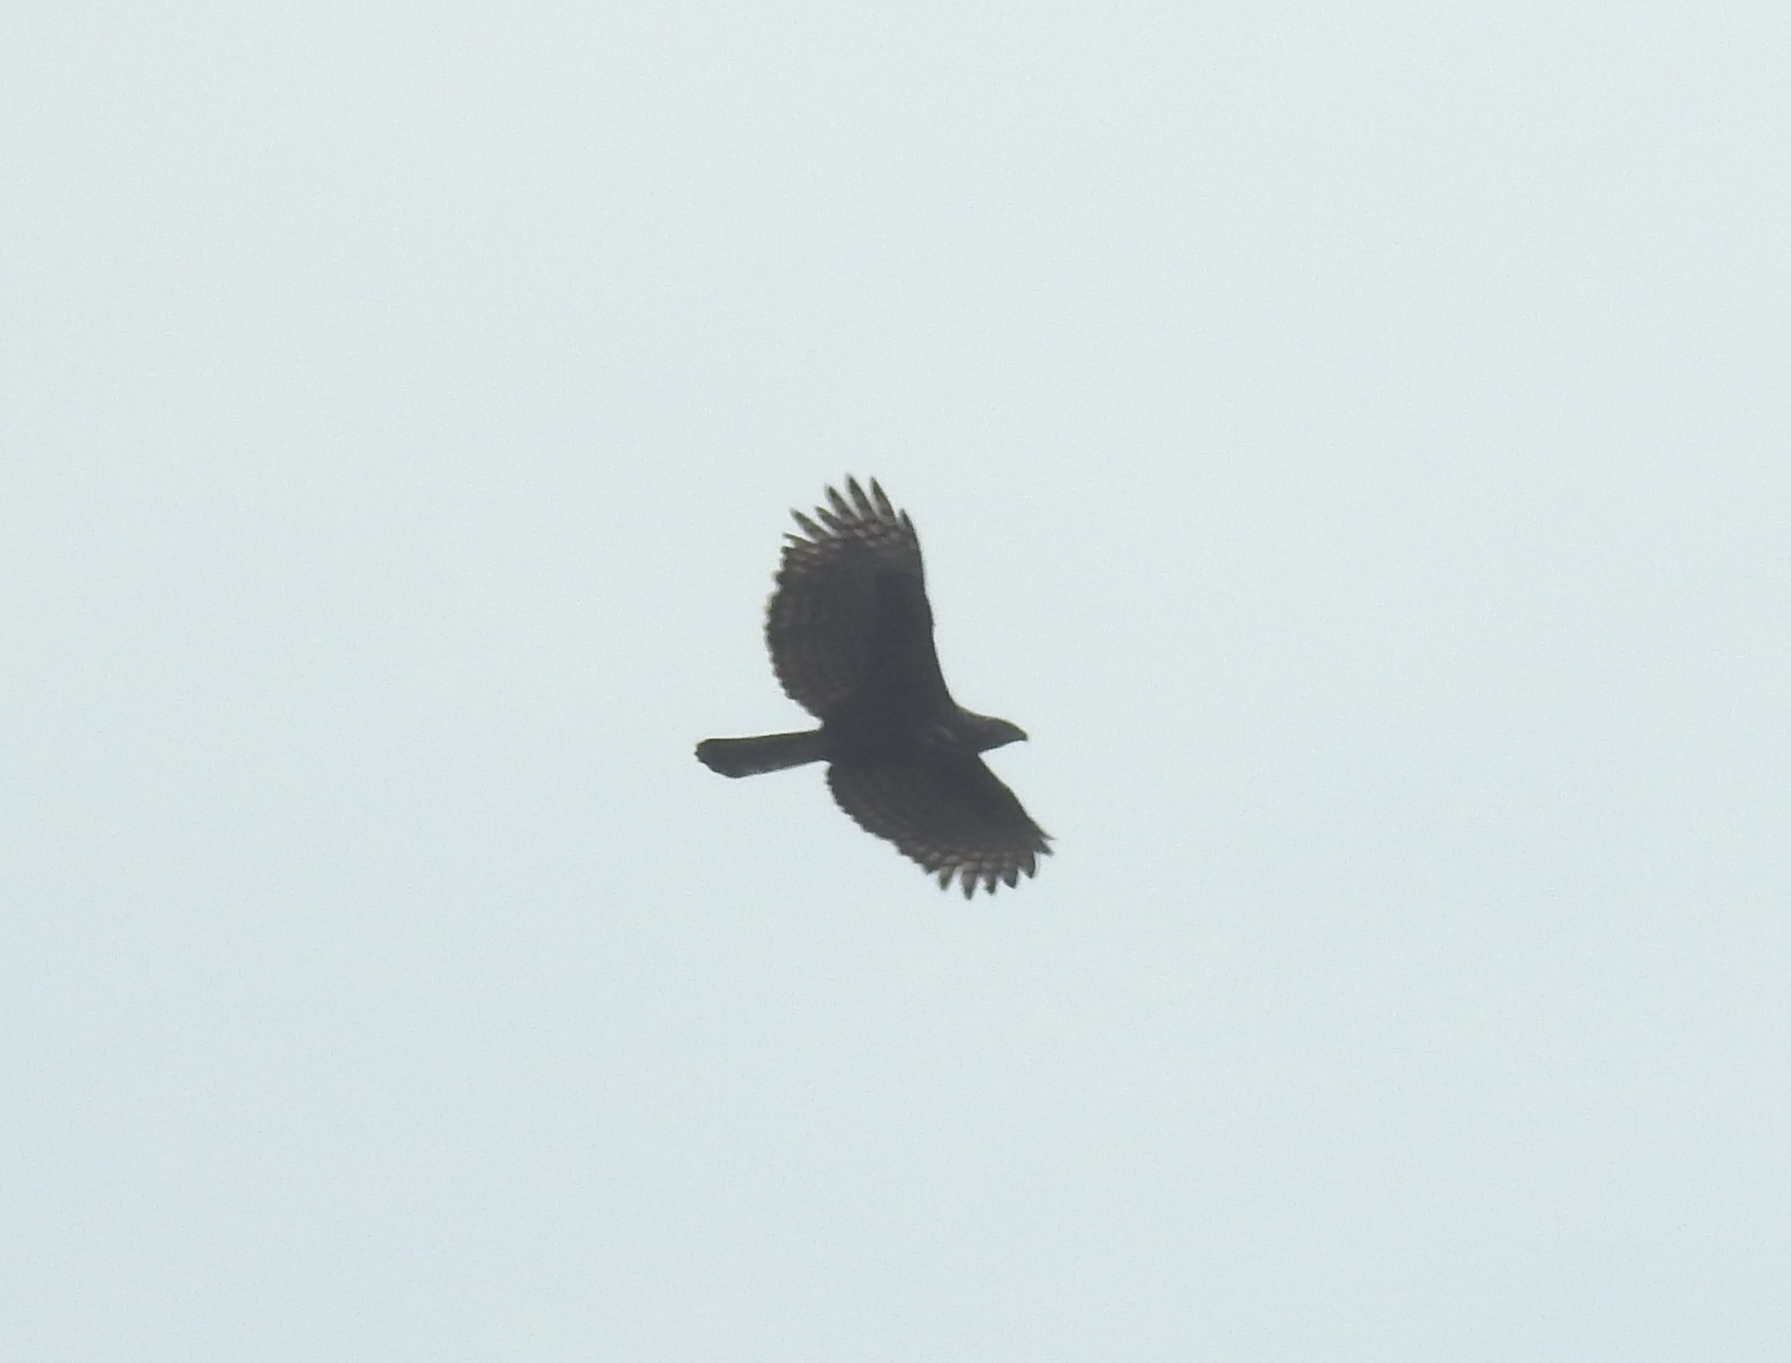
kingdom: Animalia
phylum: Chordata
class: Aves
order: Accipitriformes
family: Accipitridae
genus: Nisaetus
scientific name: Nisaetus cirrhatus
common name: Changeable hawk-eagle
